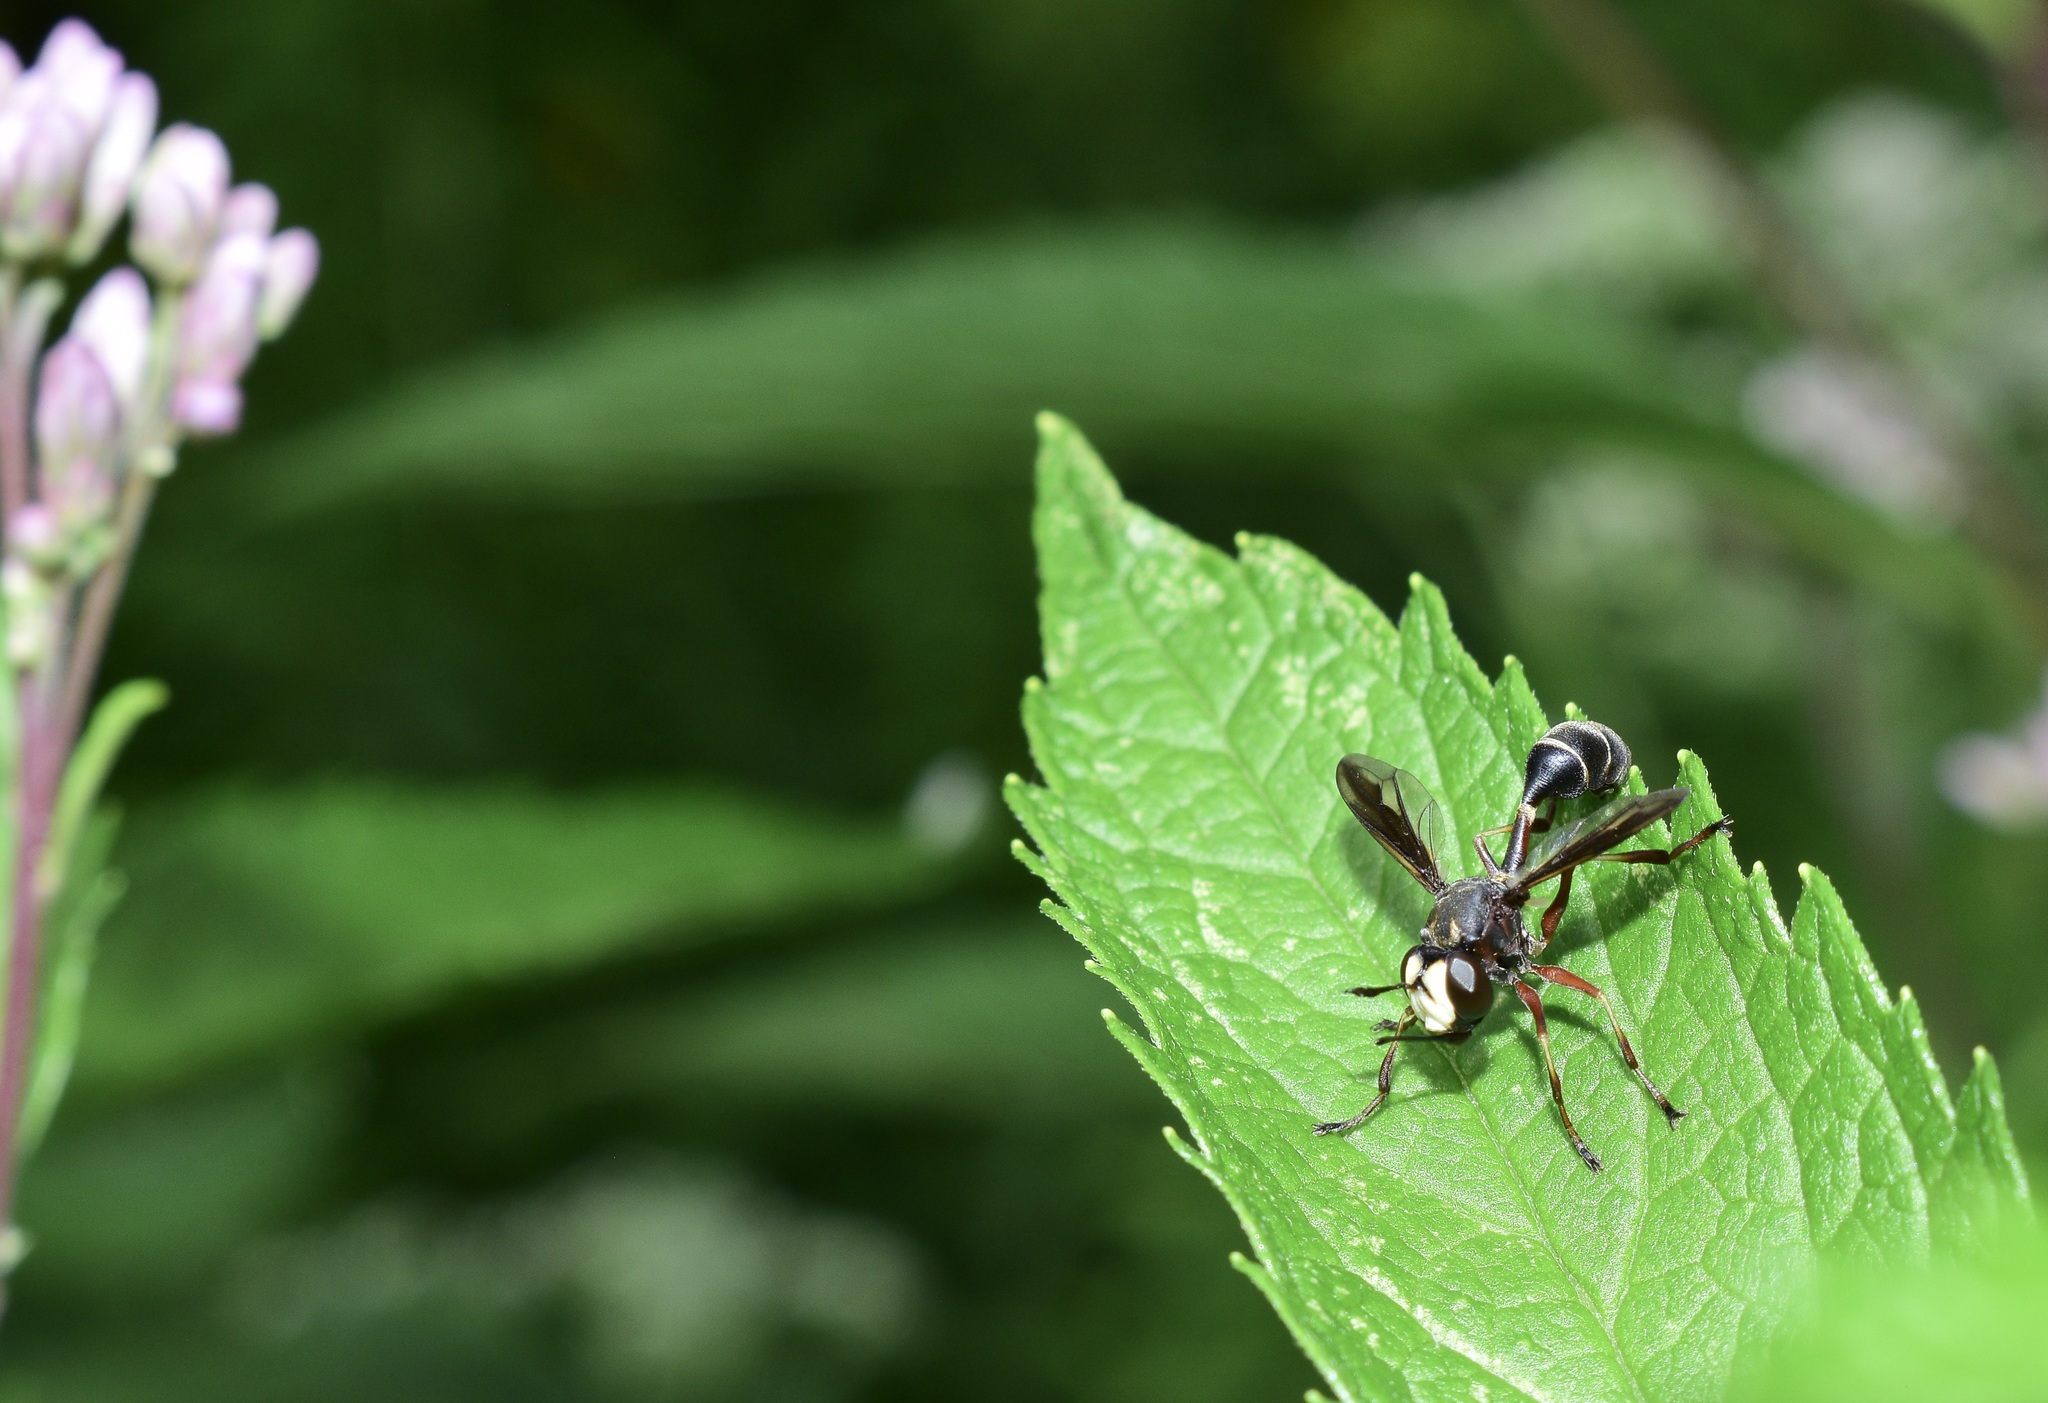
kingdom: Animalia
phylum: Arthropoda
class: Insecta
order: Diptera
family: Conopidae
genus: Physocephala
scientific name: Physocephala furcillata
